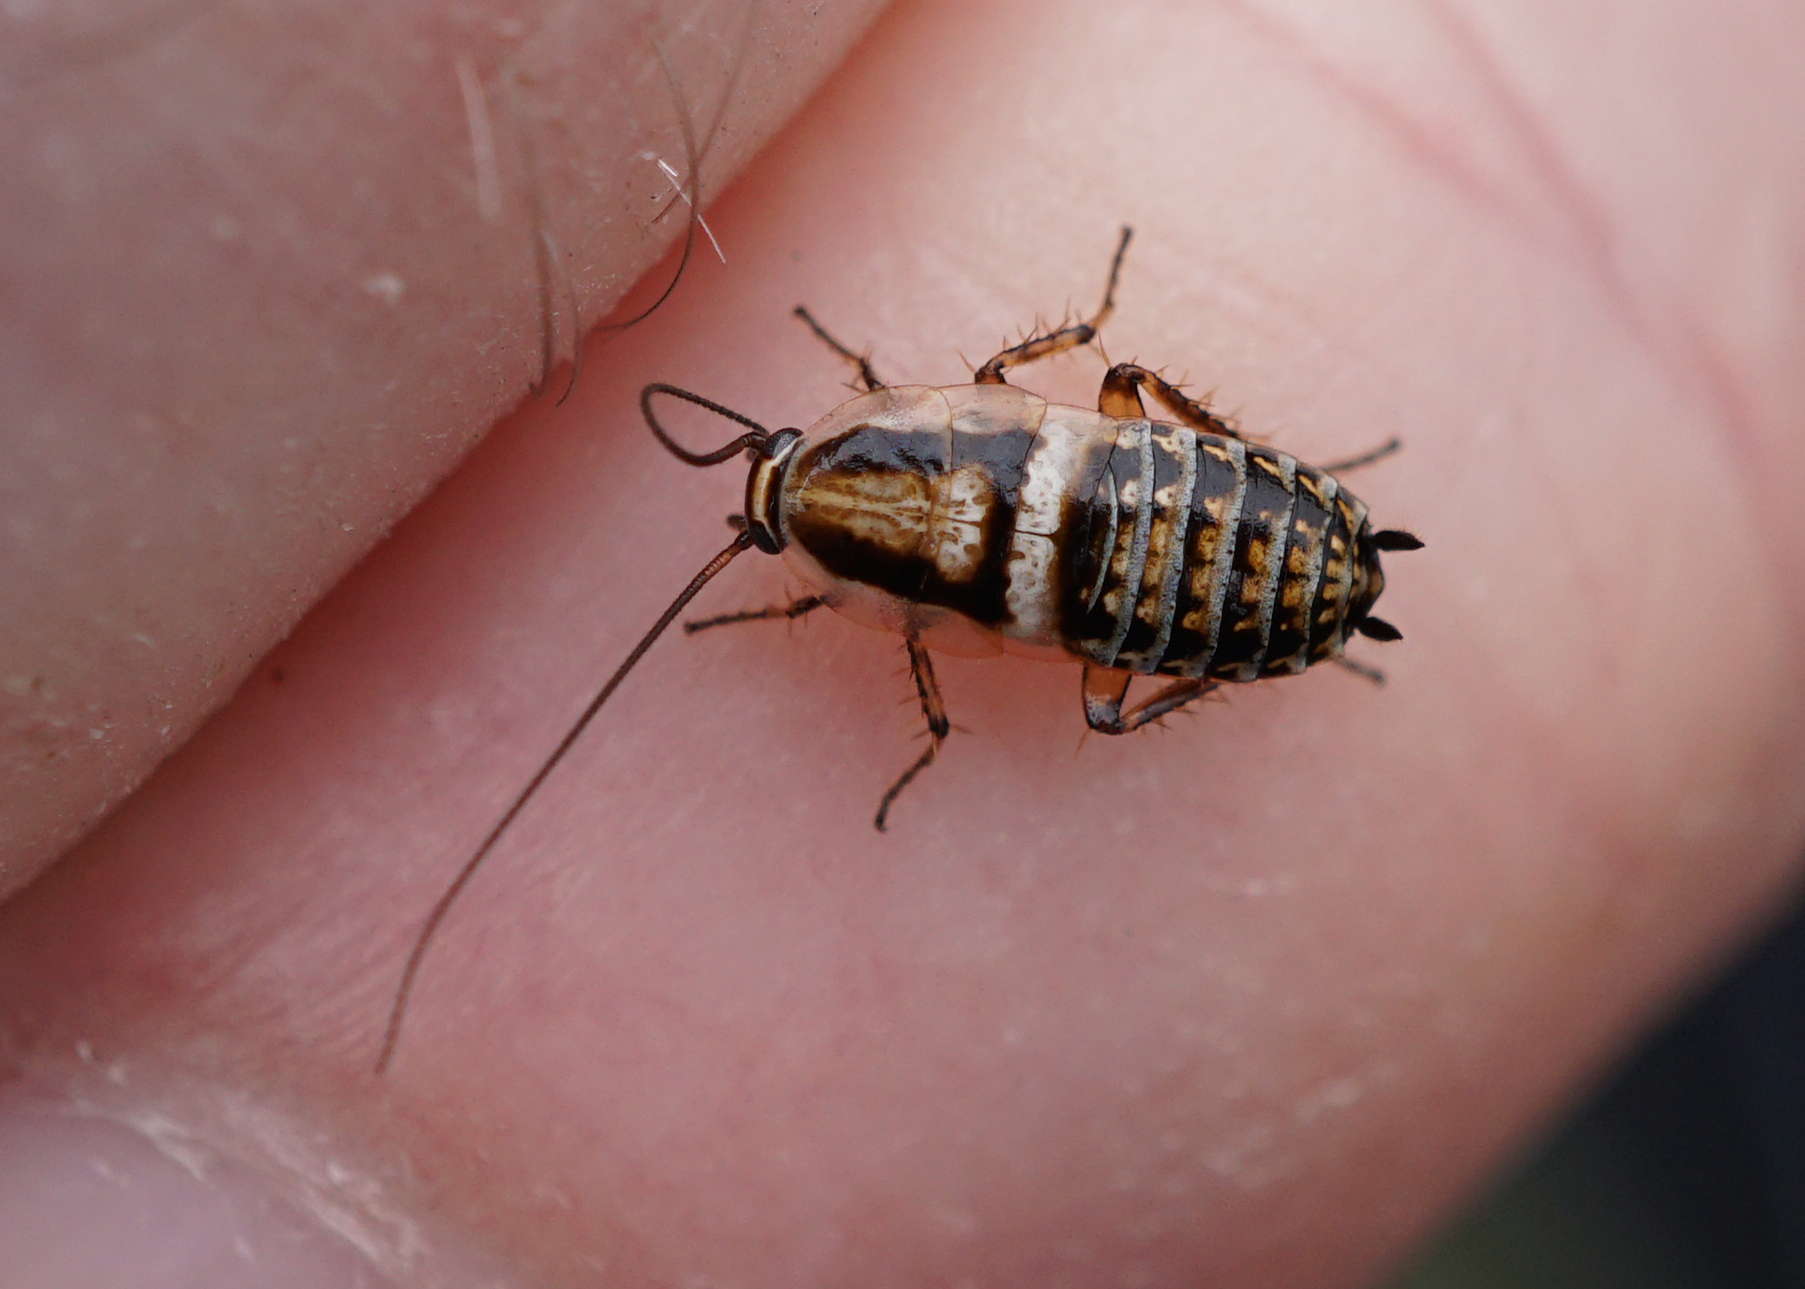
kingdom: Animalia
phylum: Arthropoda
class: Insecta
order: Blattodea
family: Ectobiidae
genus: Capraiellus
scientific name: Capraiellus panzeri
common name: Lesser cockroach
